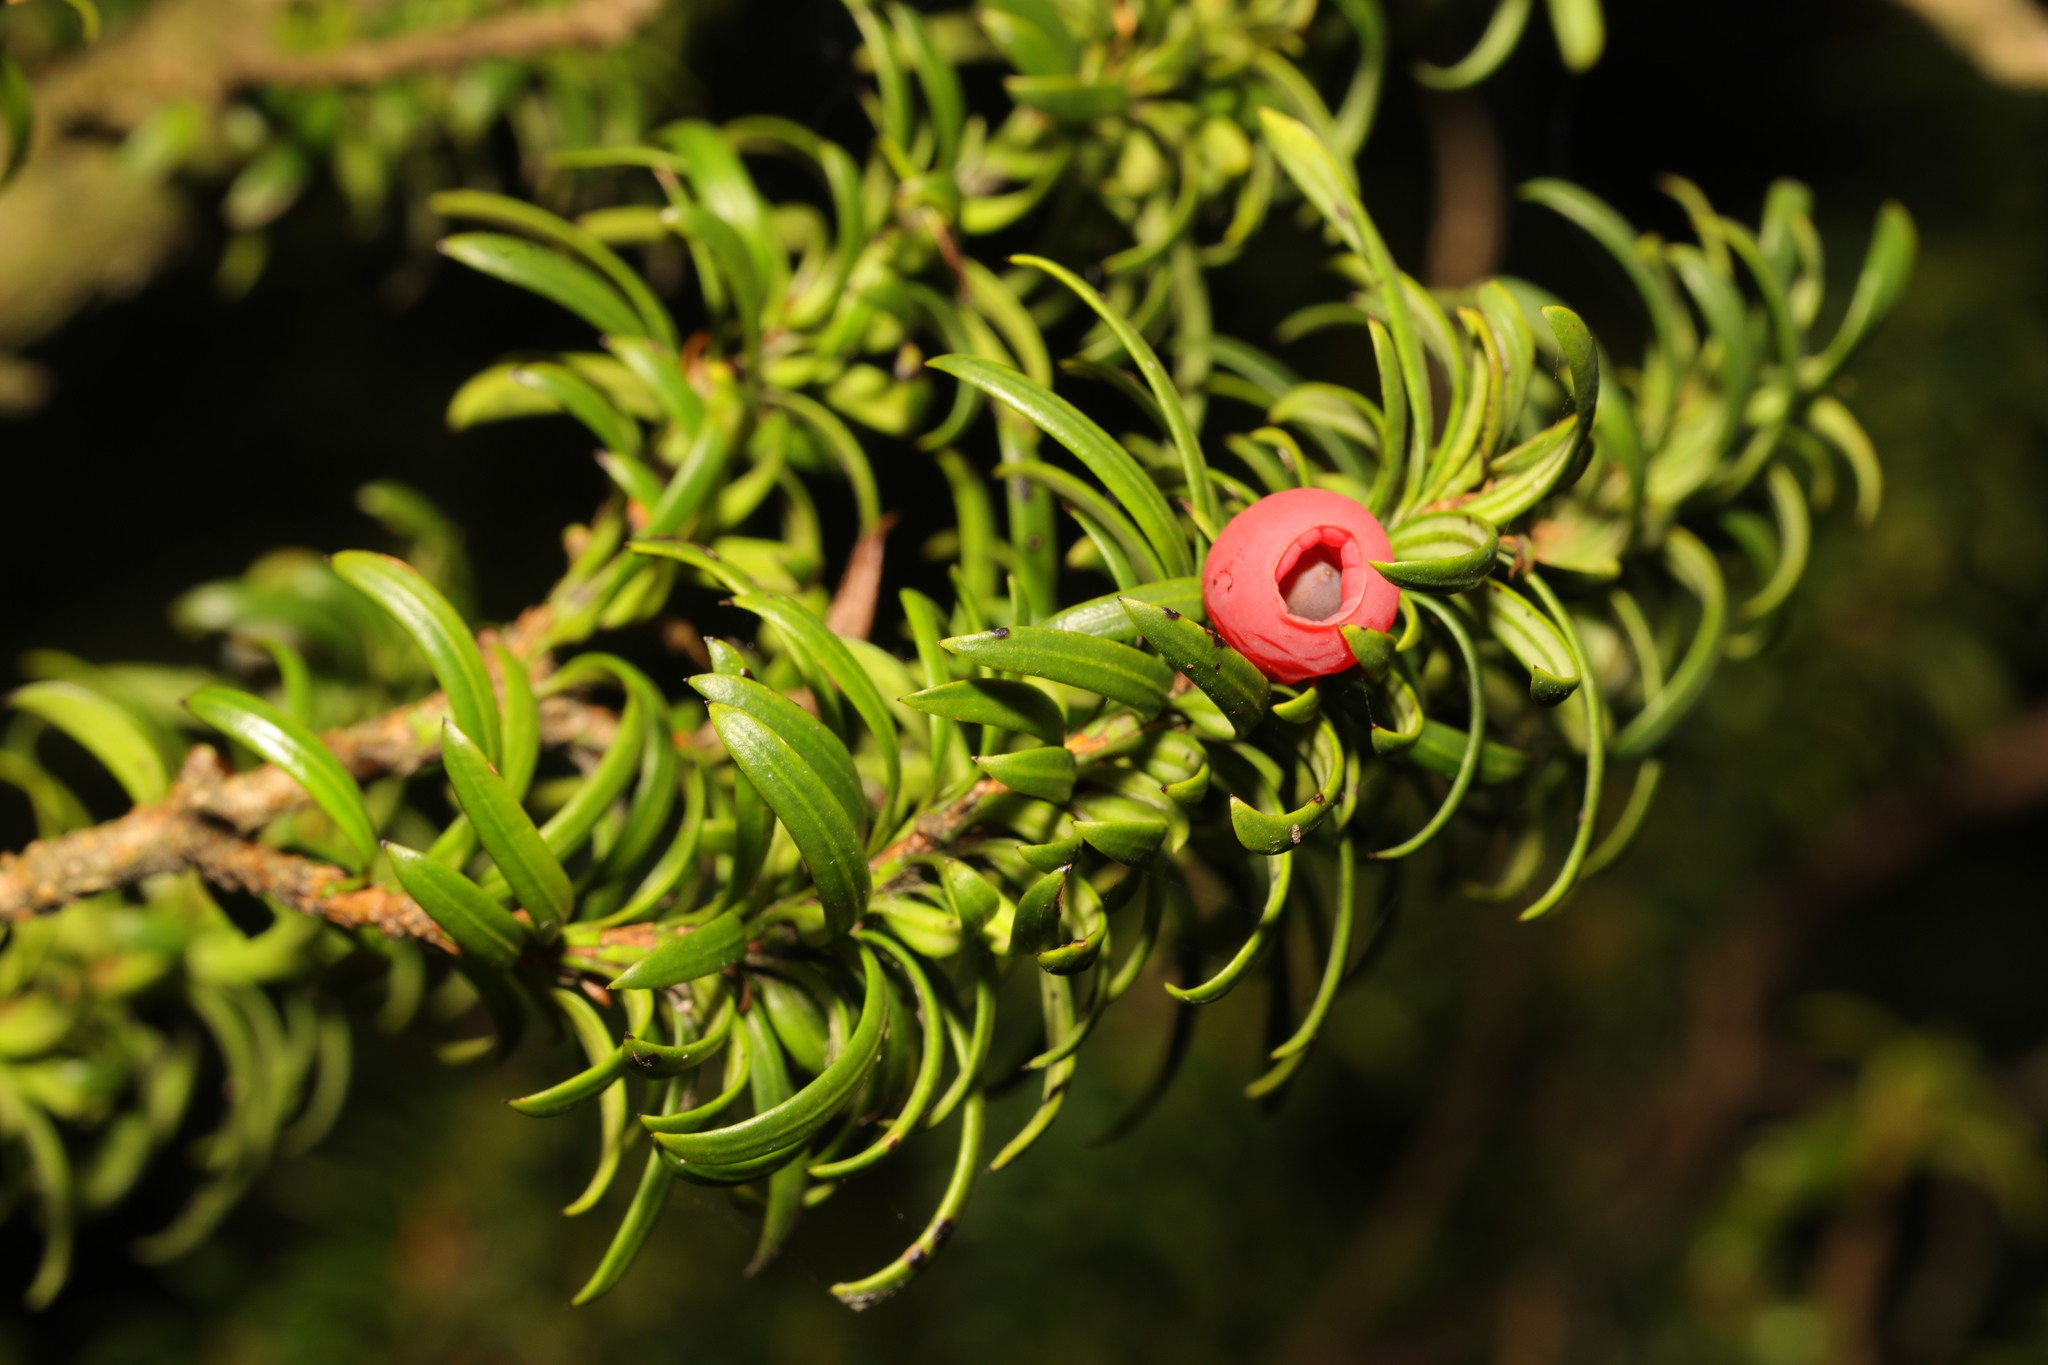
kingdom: Plantae
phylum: Tracheophyta
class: Pinopsida
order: Pinales
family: Taxaceae
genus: Taxus
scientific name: Taxus baccata
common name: Yew
